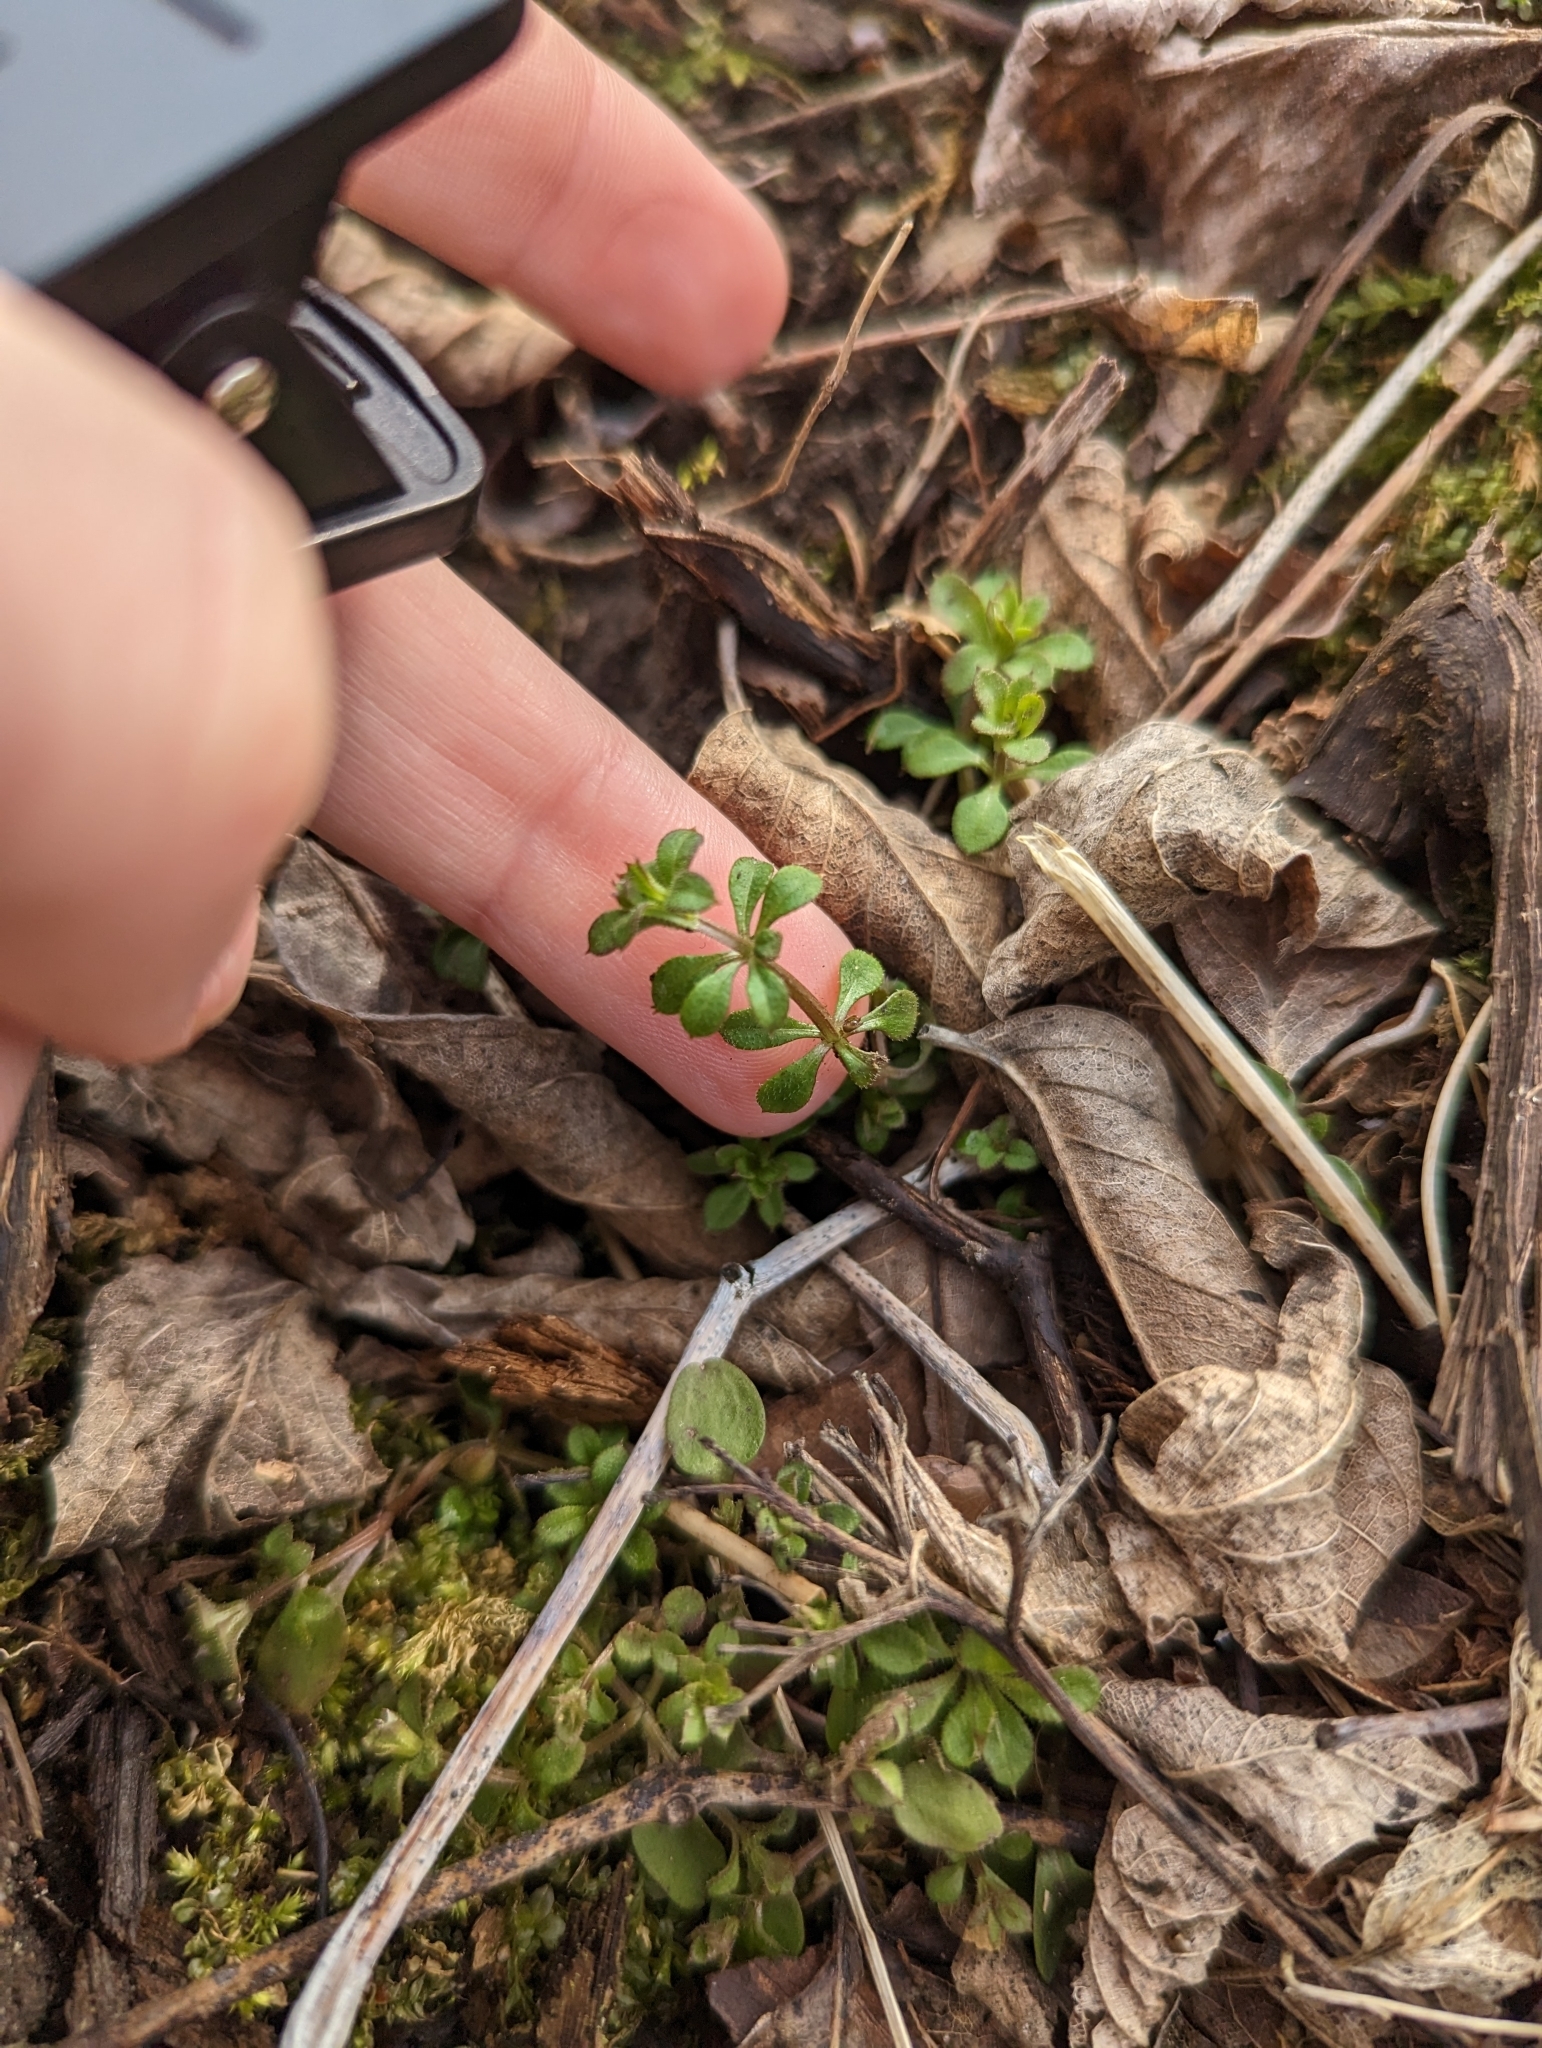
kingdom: Plantae
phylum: Tracheophyta
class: Magnoliopsida
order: Gentianales
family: Rubiaceae
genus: Galium
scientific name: Galium aparine
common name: Cleavers
